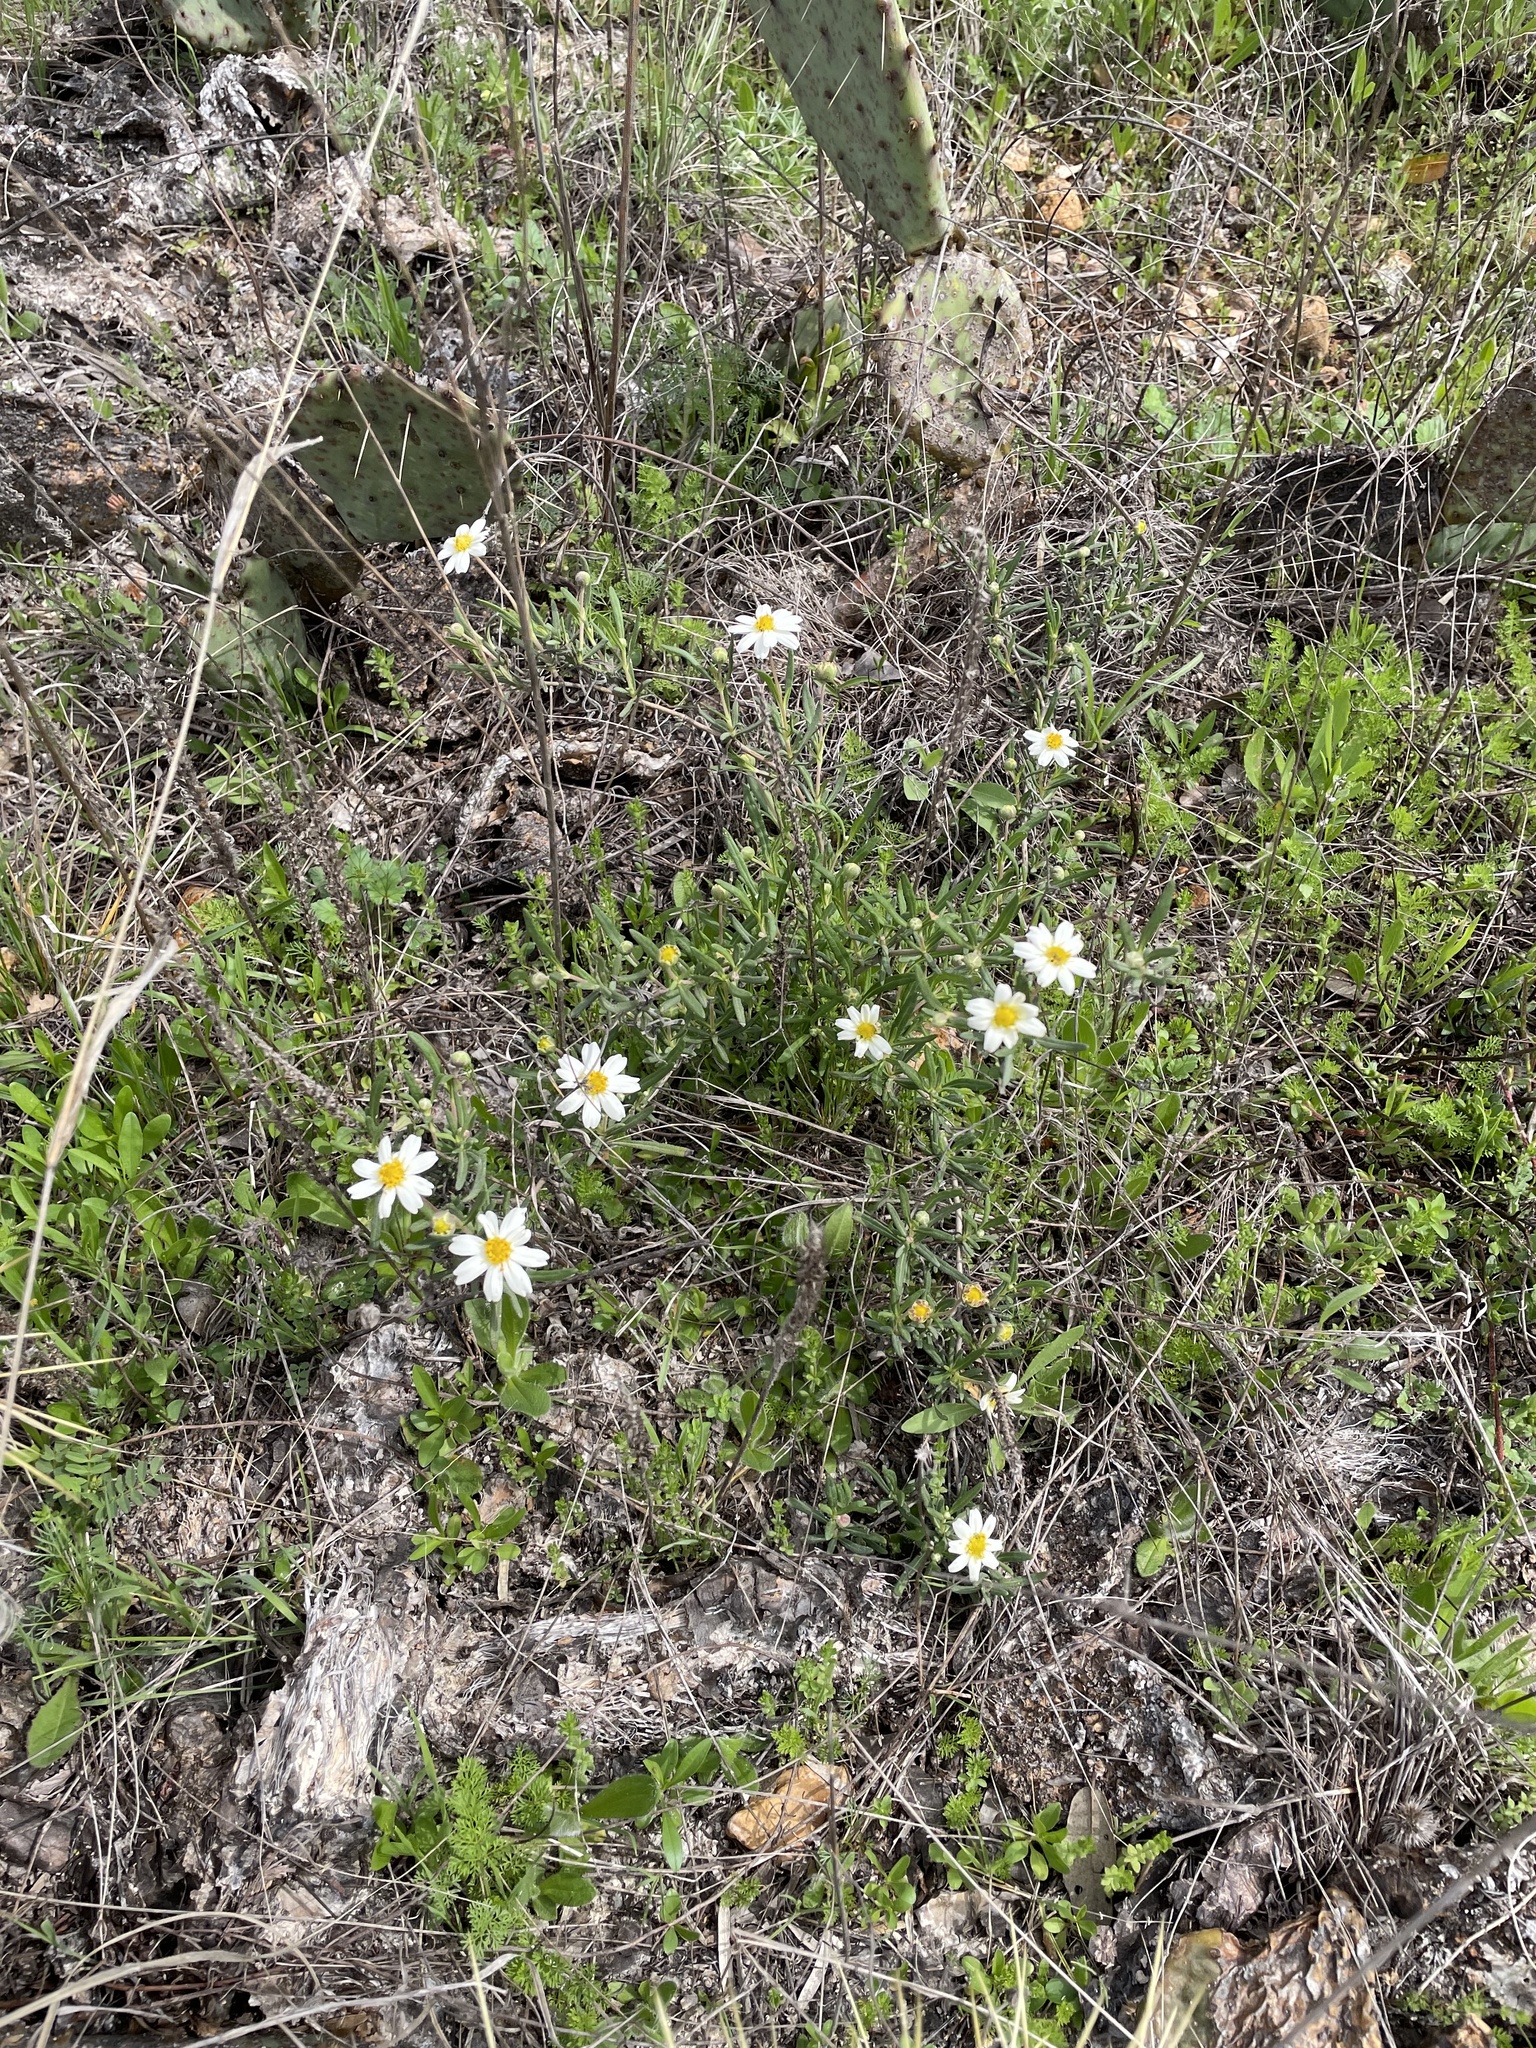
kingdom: Plantae
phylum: Tracheophyta
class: Magnoliopsida
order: Asterales
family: Asteraceae
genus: Melampodium
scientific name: Melampodium leucanthum
